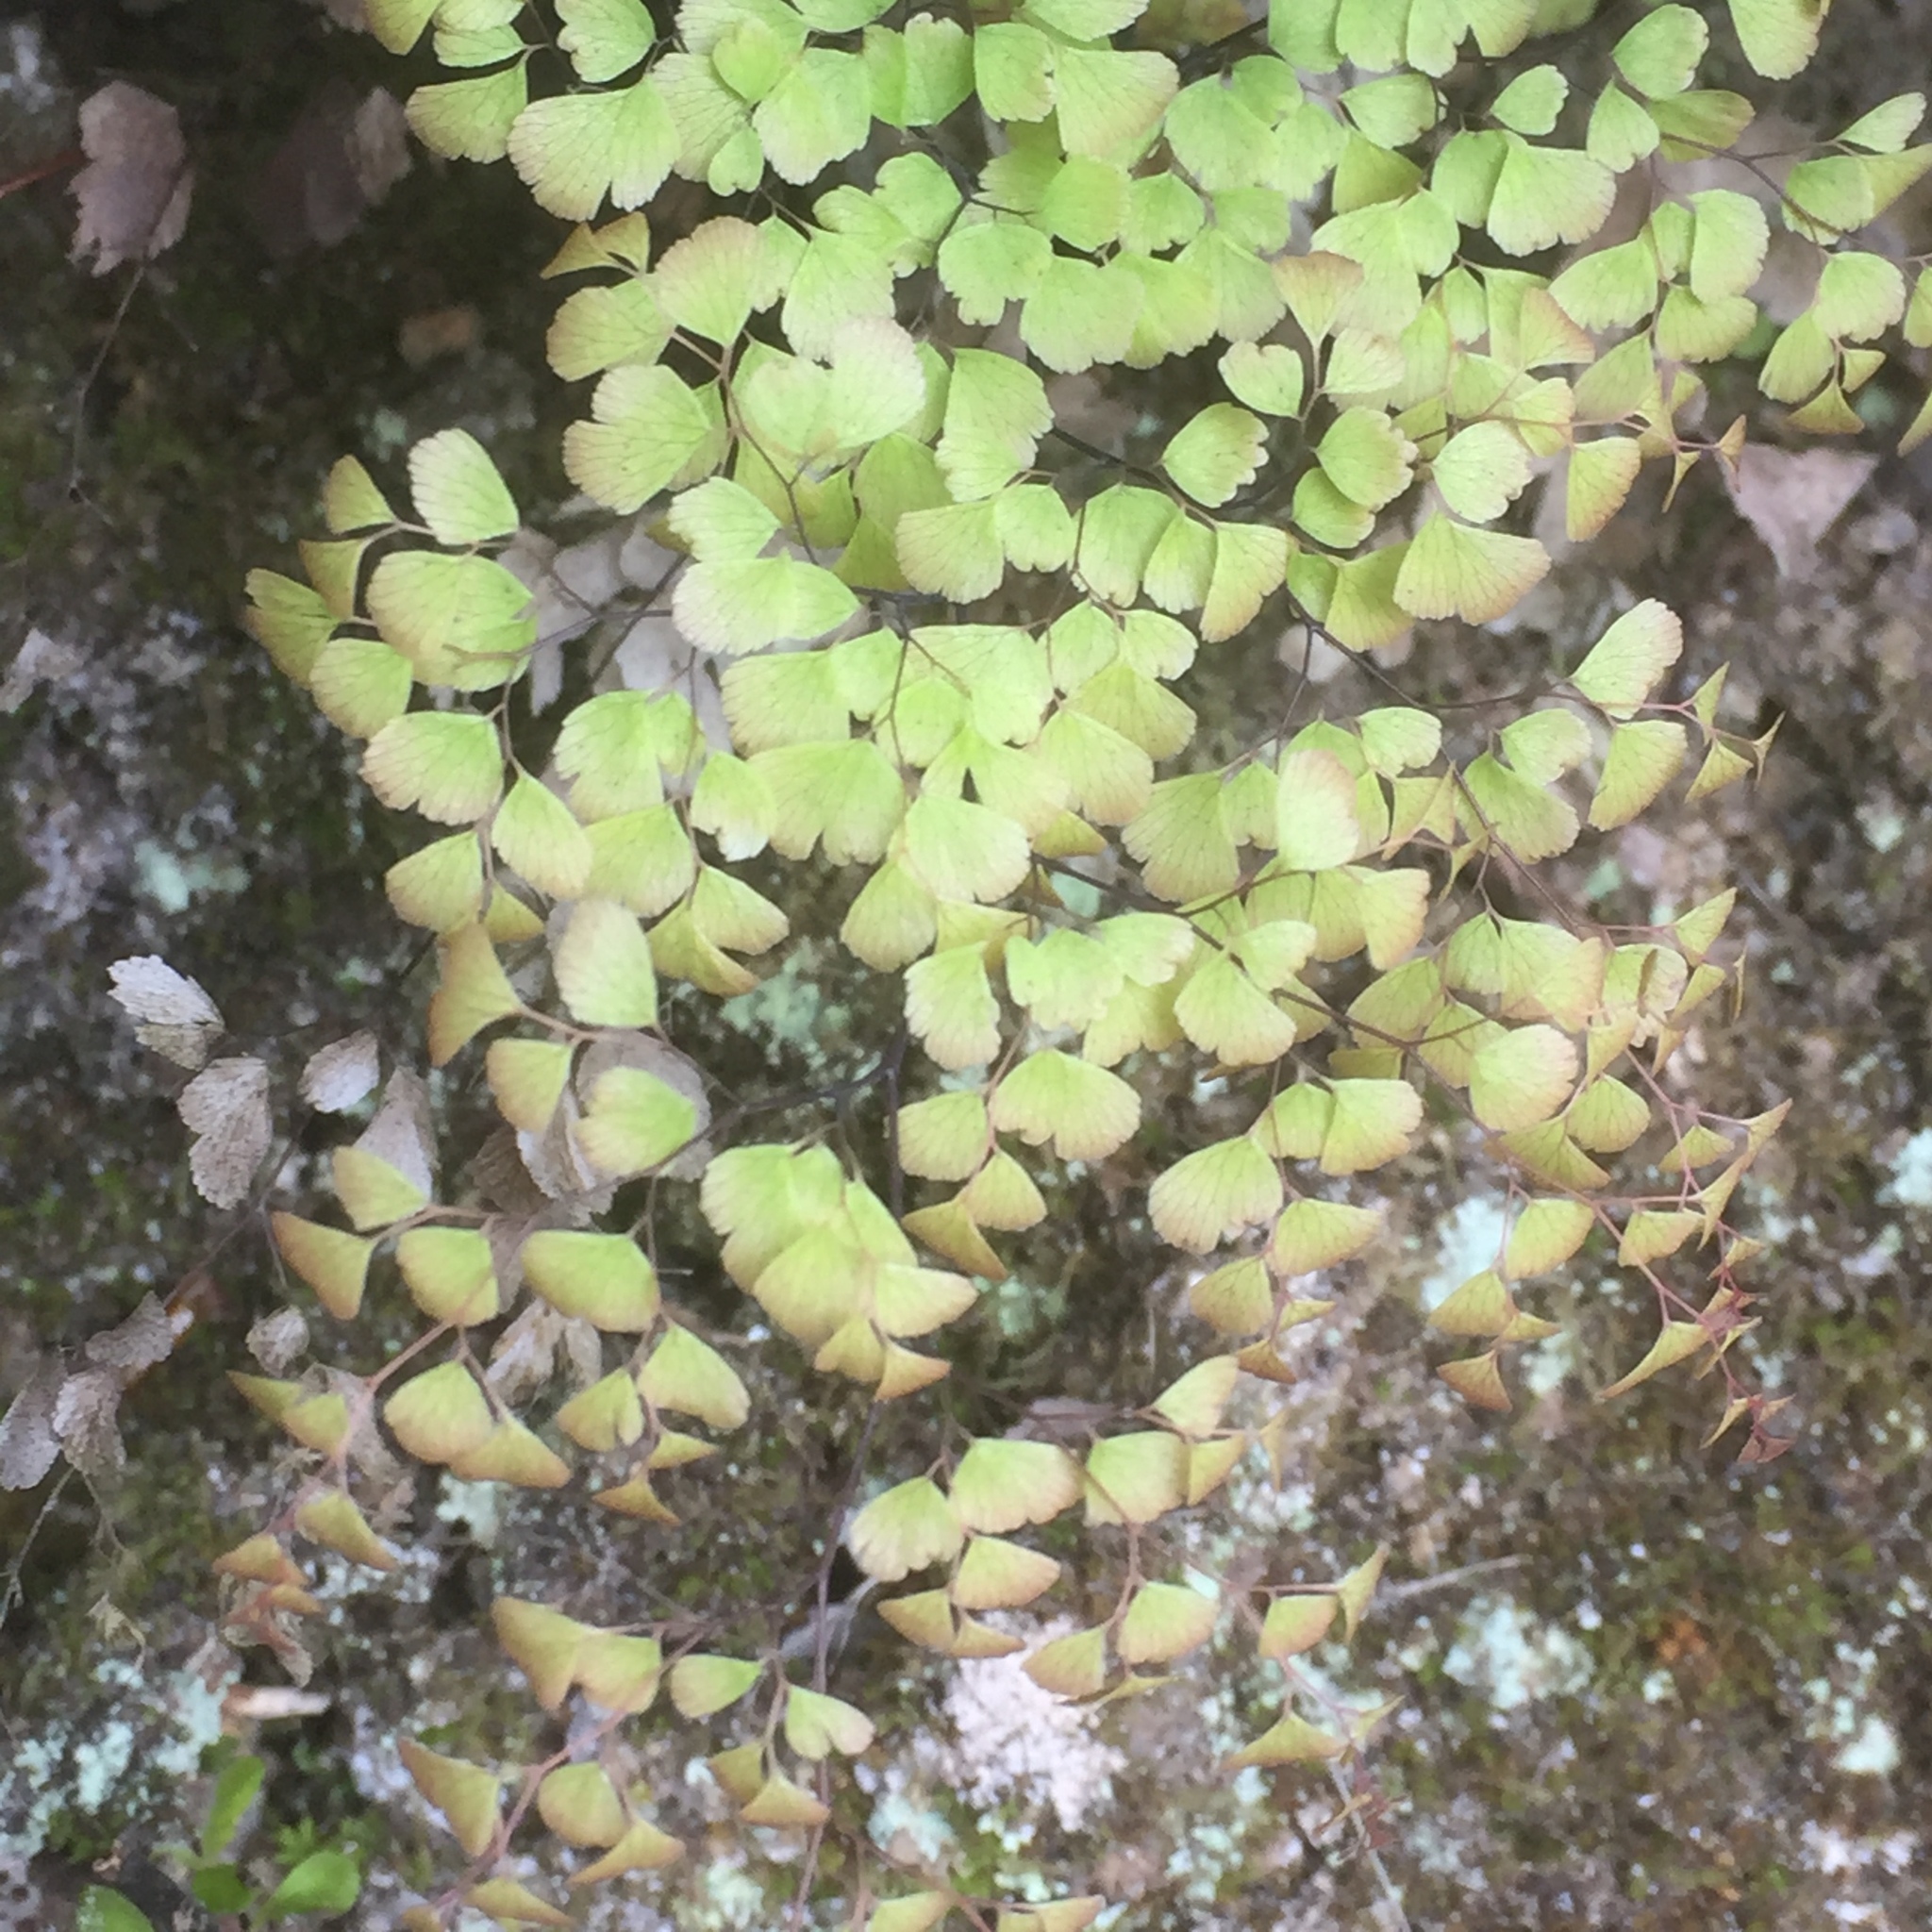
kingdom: Plantae
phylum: Tracheophyta
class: Polypodiopsida
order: Polypodiales
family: Pteridaceae
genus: Adiantum
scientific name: Adiantum capillus-veneris
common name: Maidenhair fern
